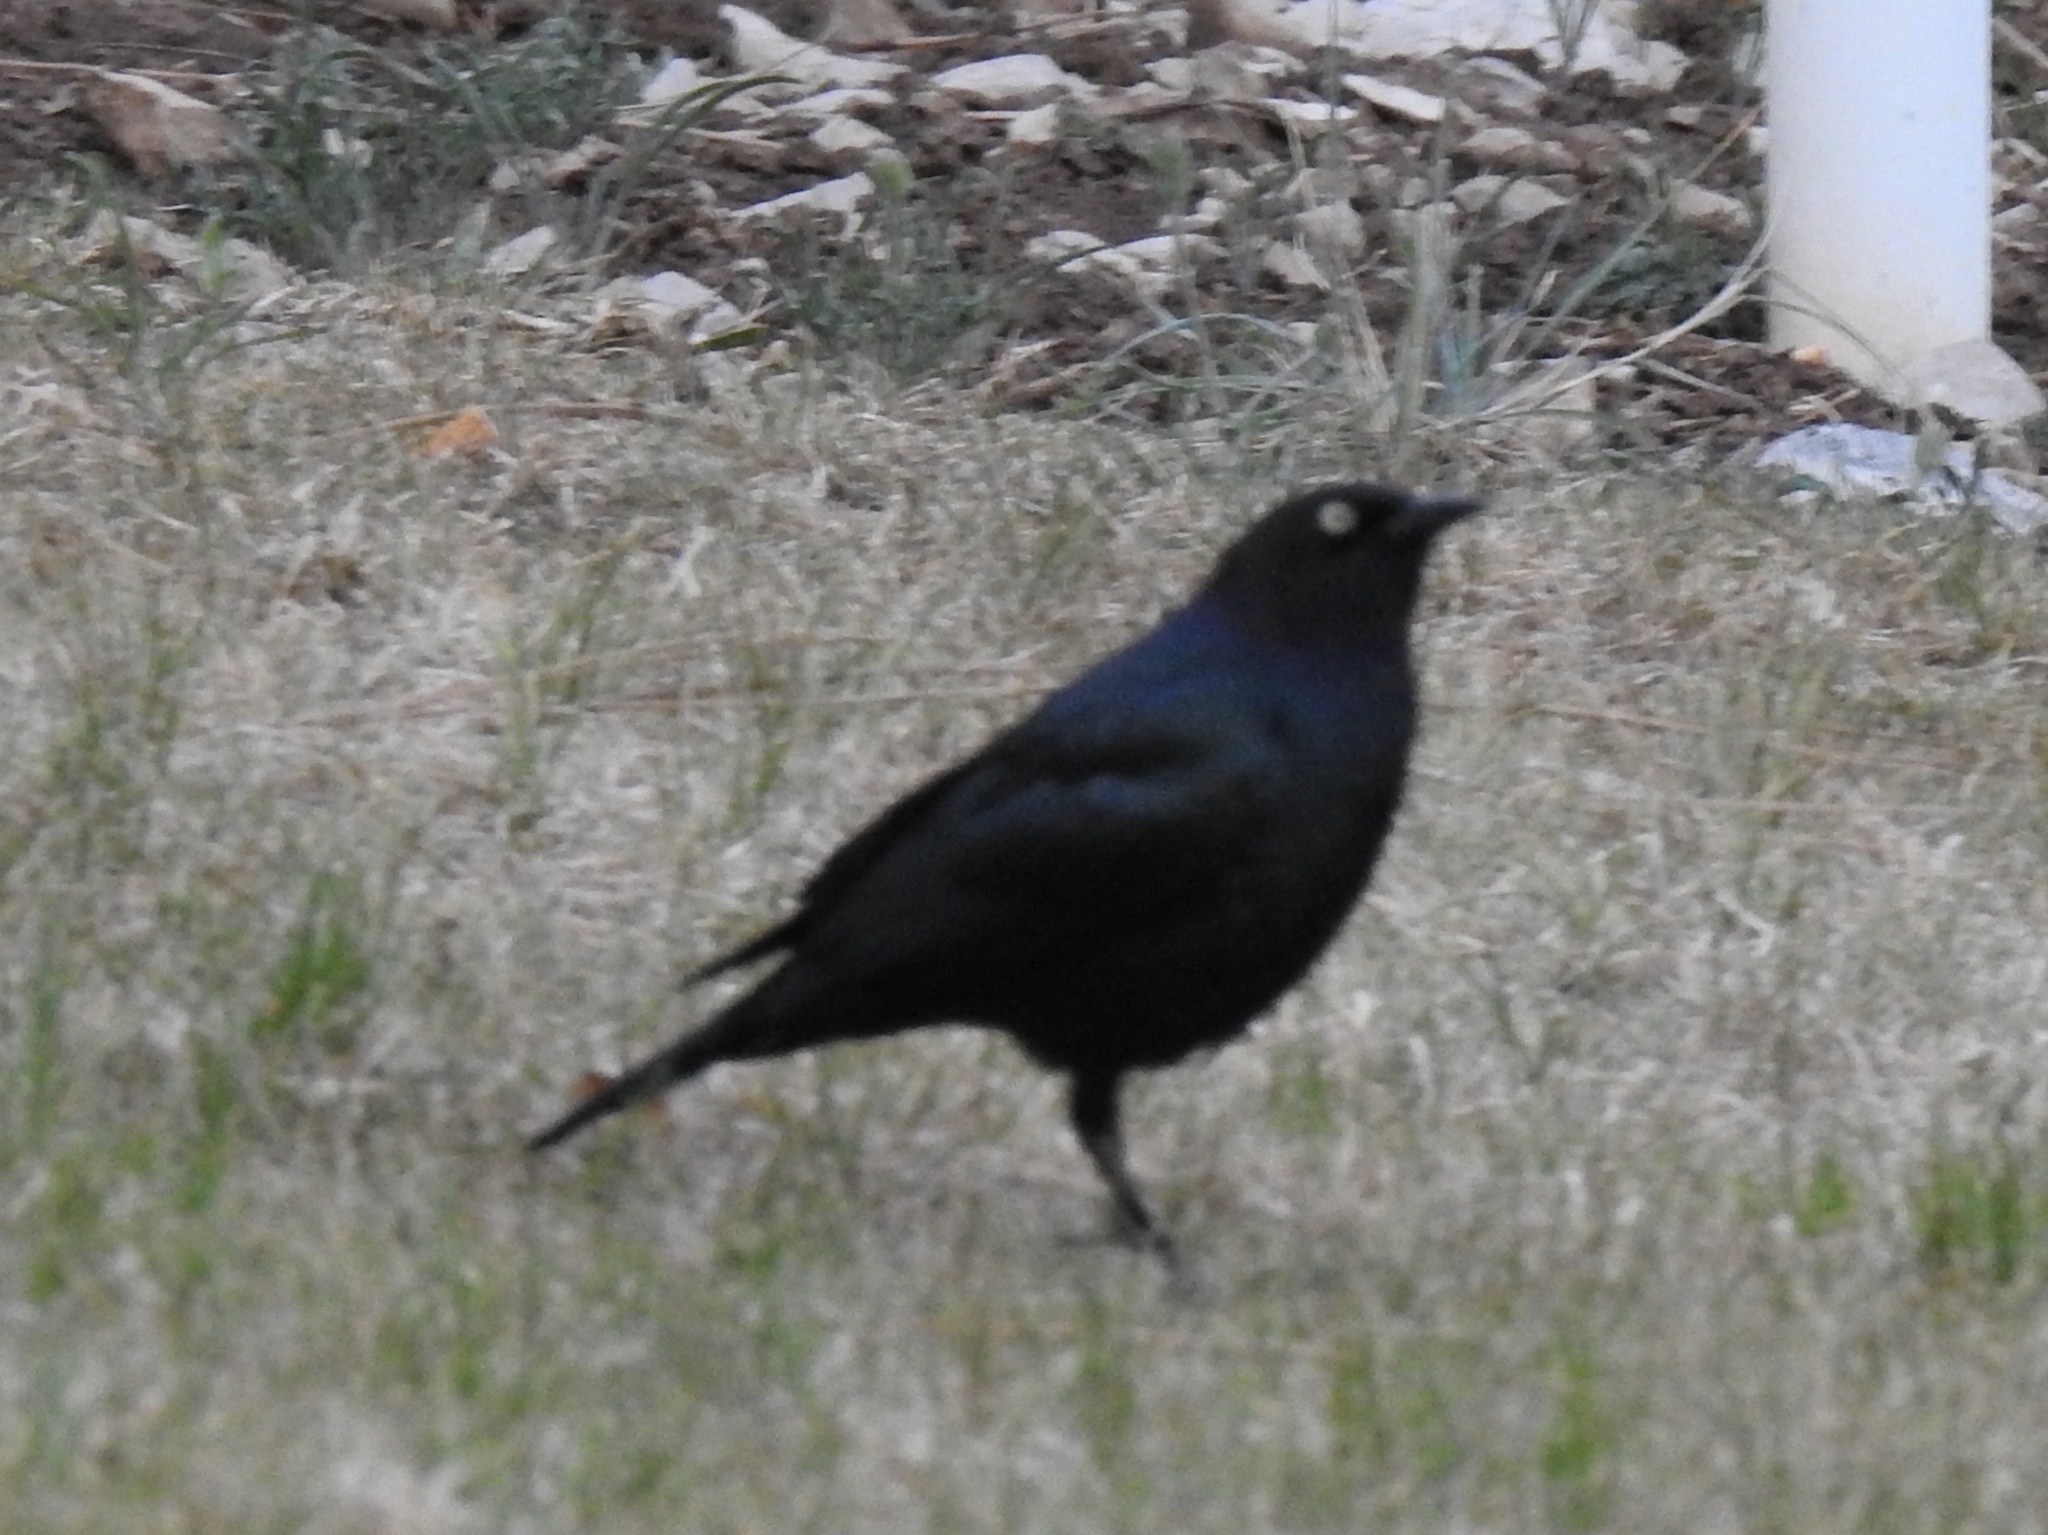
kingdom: Animalia
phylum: Chordata
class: Aves
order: Passeriformes
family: Icteridae
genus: Euphagus
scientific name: Euphagus cyanocephalus
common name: Brewer's blackbird
